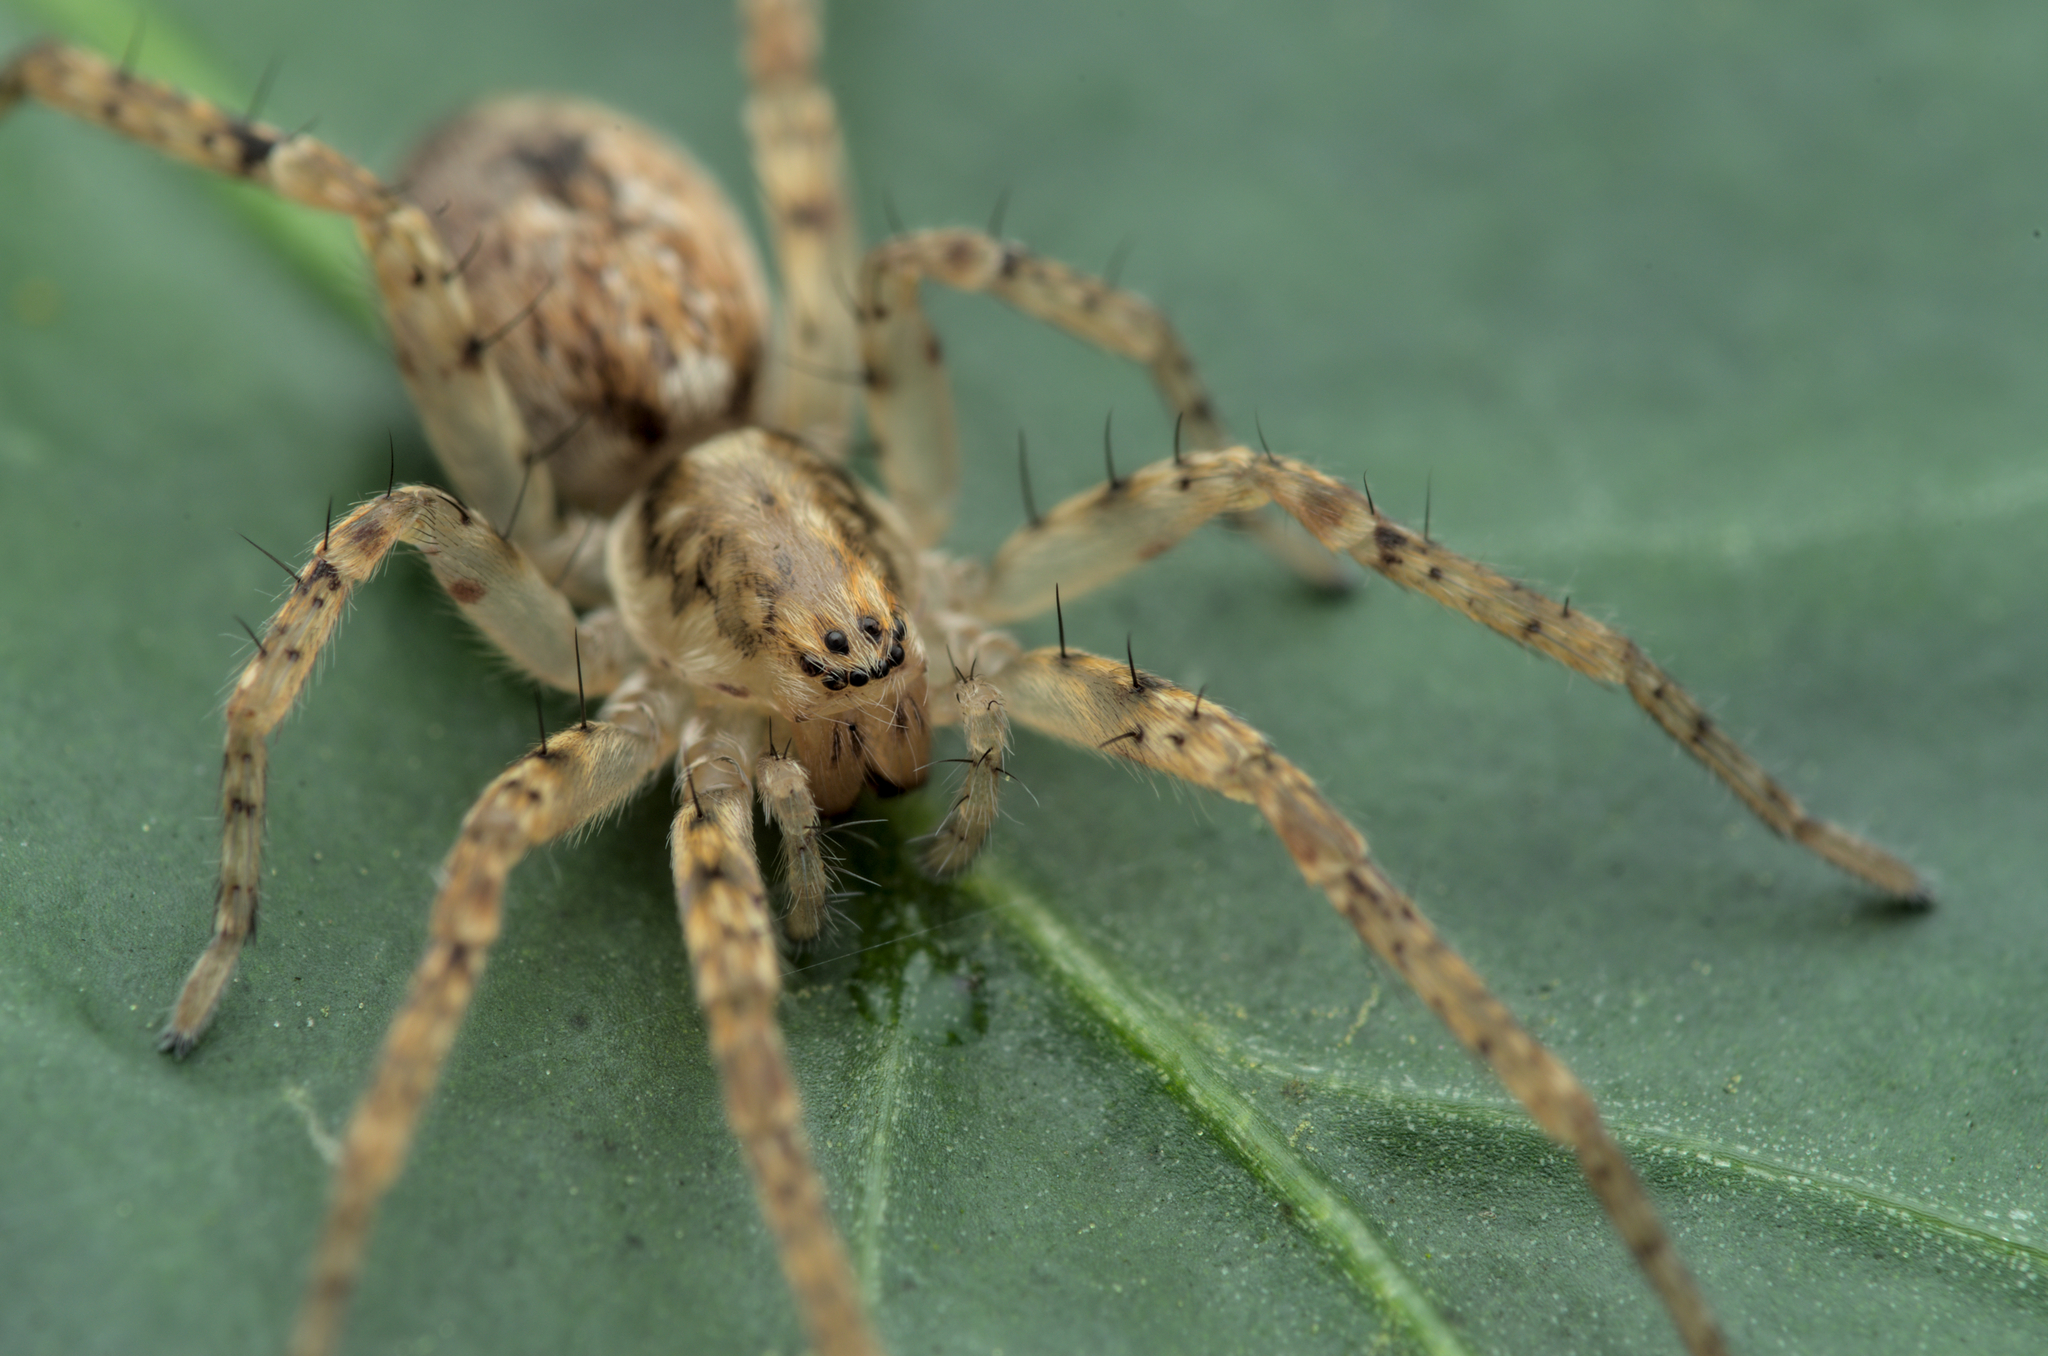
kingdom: Animalia
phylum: Arthropoda
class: Arachnida
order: Araneae
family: Anyphaenidae
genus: Anyphaena
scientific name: Anyphaena accentuata
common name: Buzzing spider
